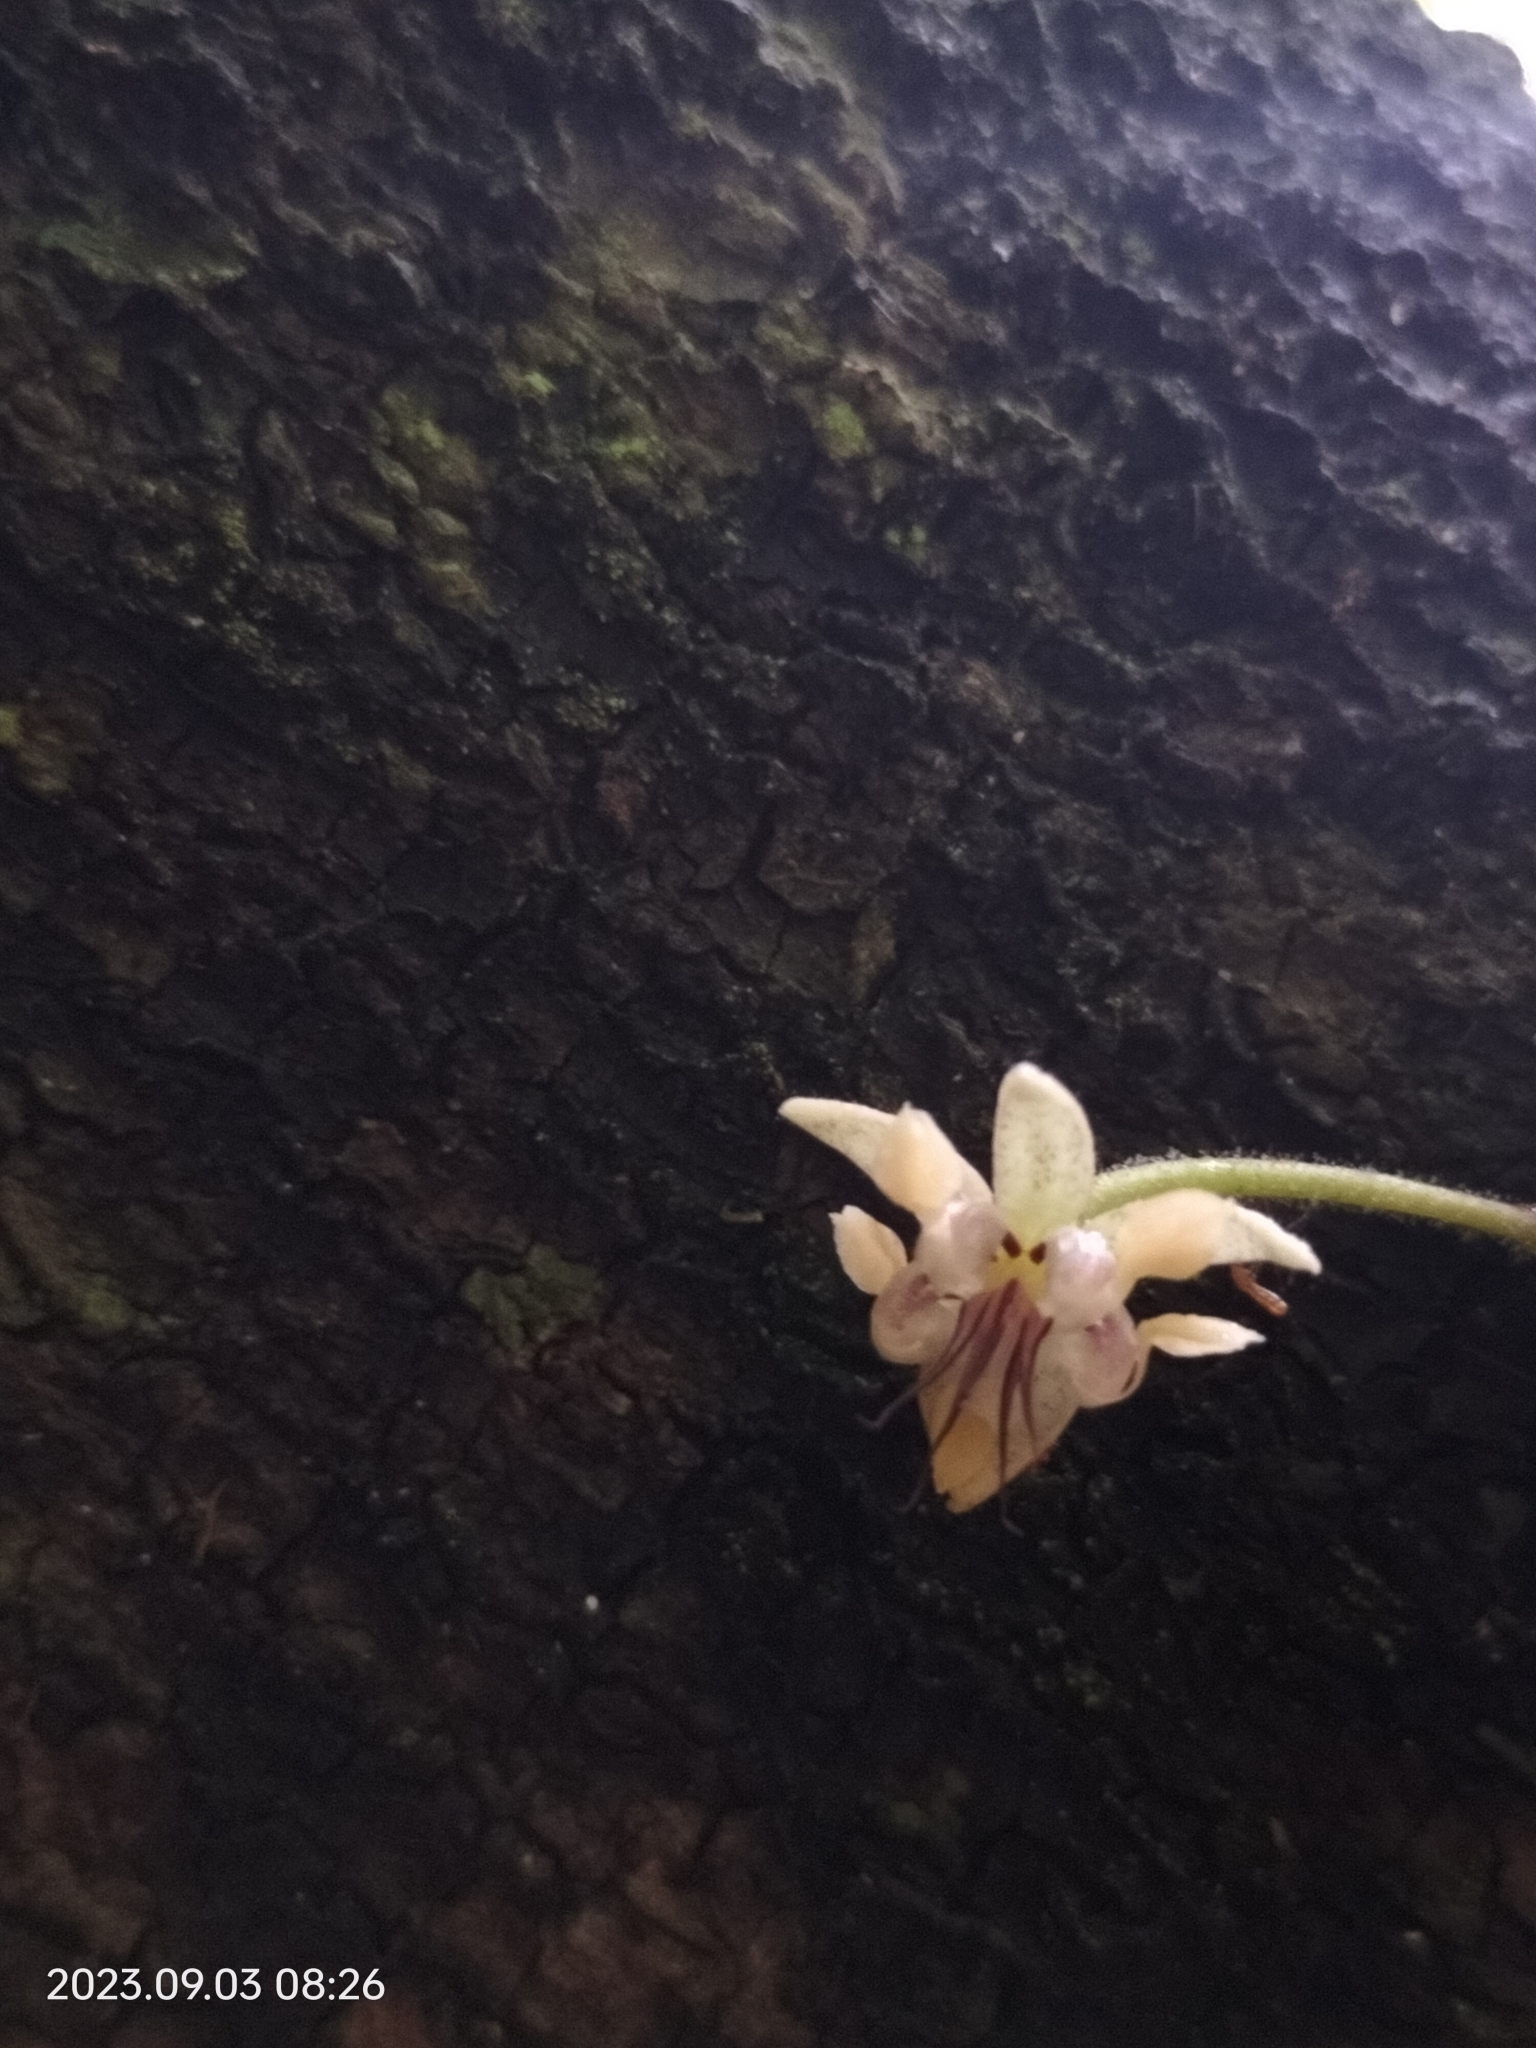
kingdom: Plantae
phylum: Tracheophyta
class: Magnoliopsida
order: Malvales
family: Malvaceae
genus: Theobroma
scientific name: Theobroma cacao
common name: Cocoa
